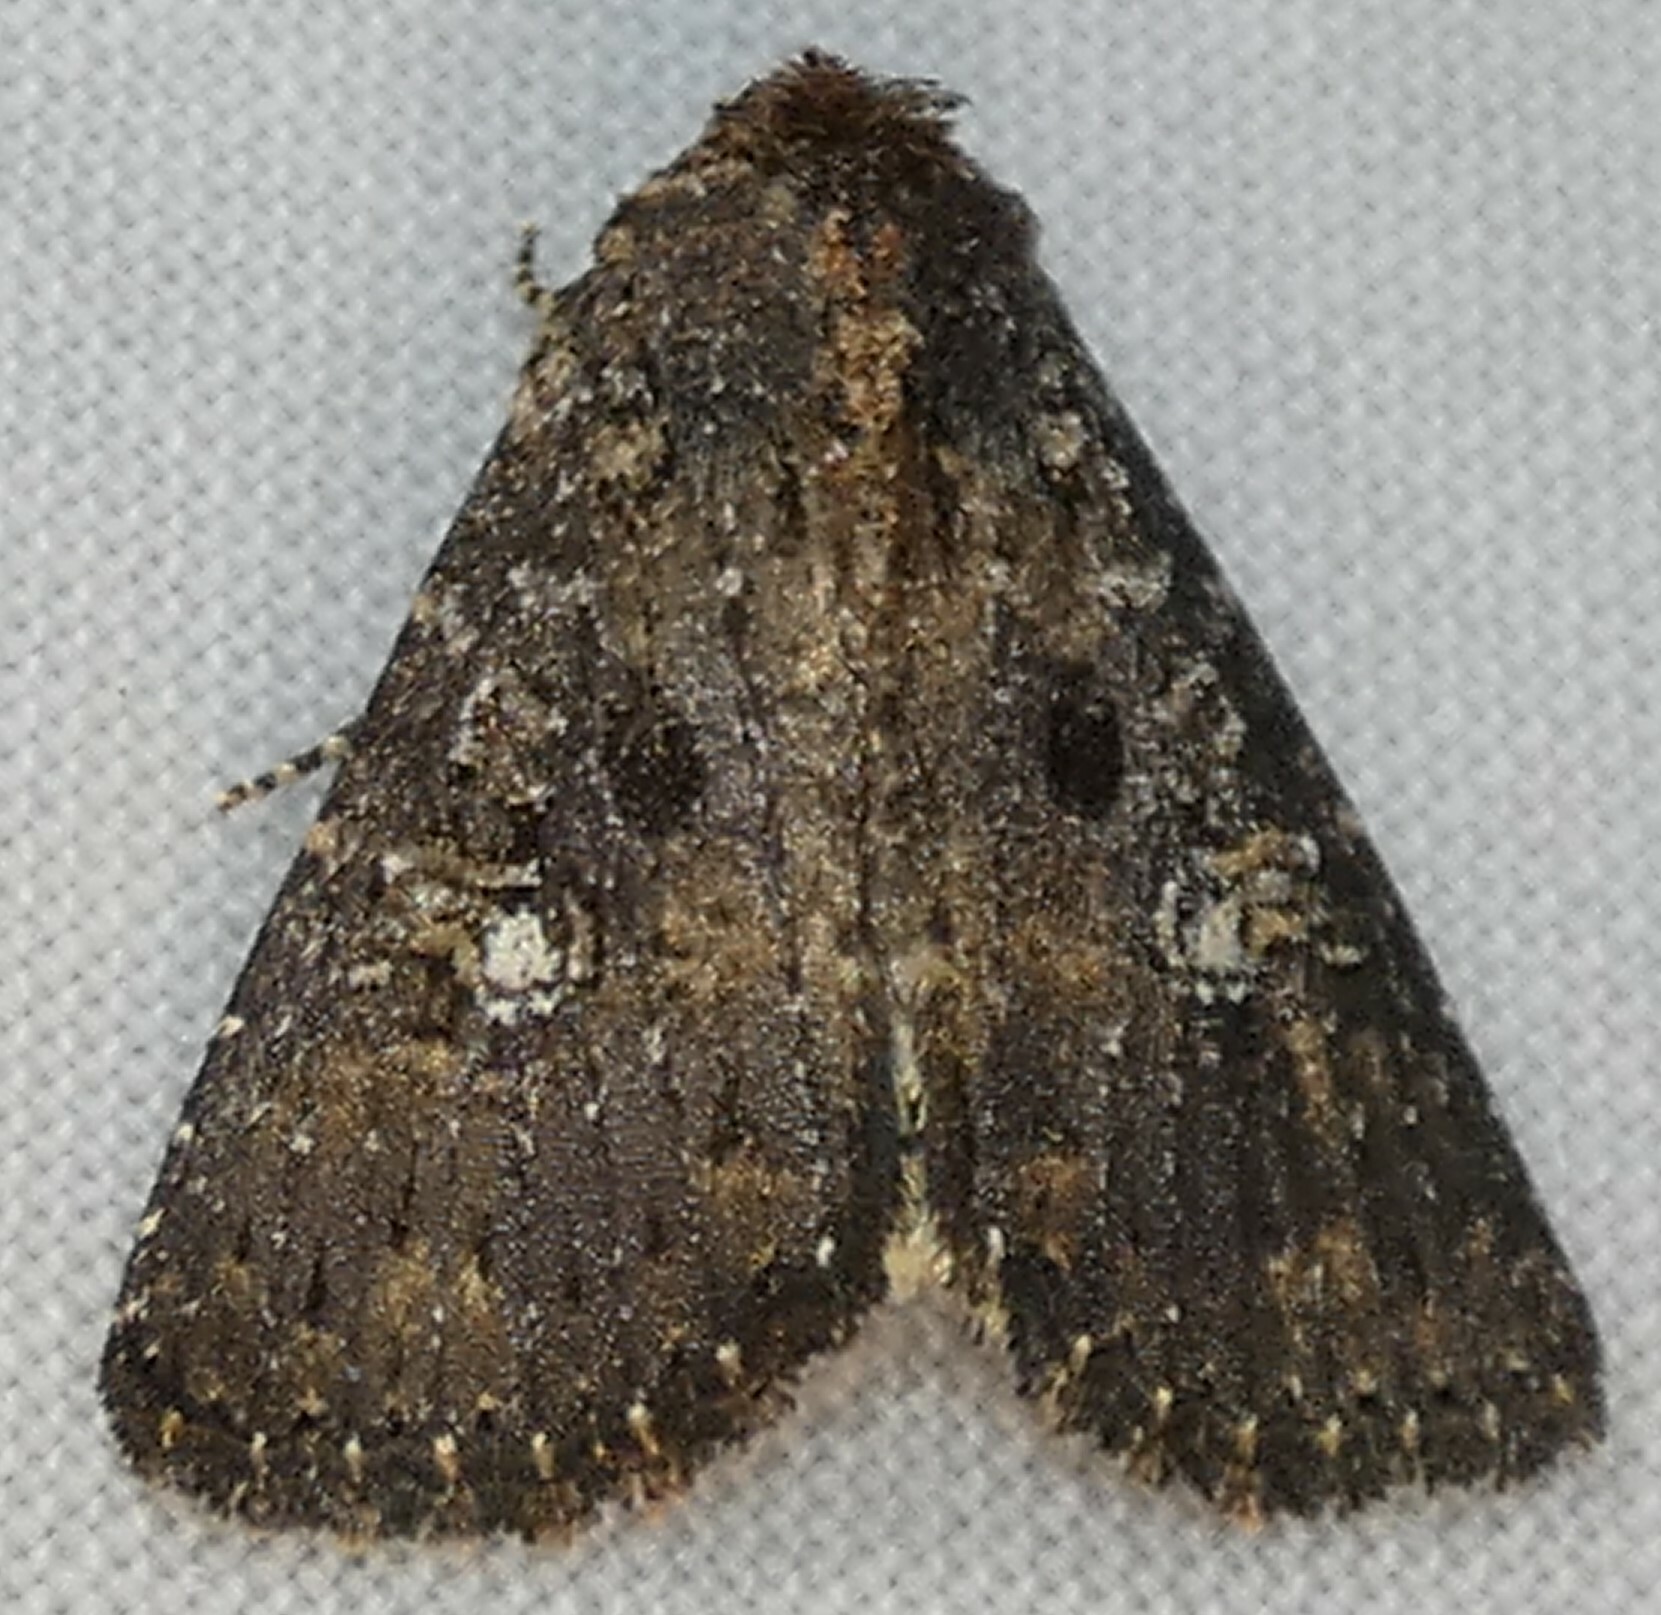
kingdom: Animalia
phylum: Arthropoda
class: Insecta
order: Lepidoptera
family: Noctuidae
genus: Condica
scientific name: Condica vecors
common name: Dusky groundling
